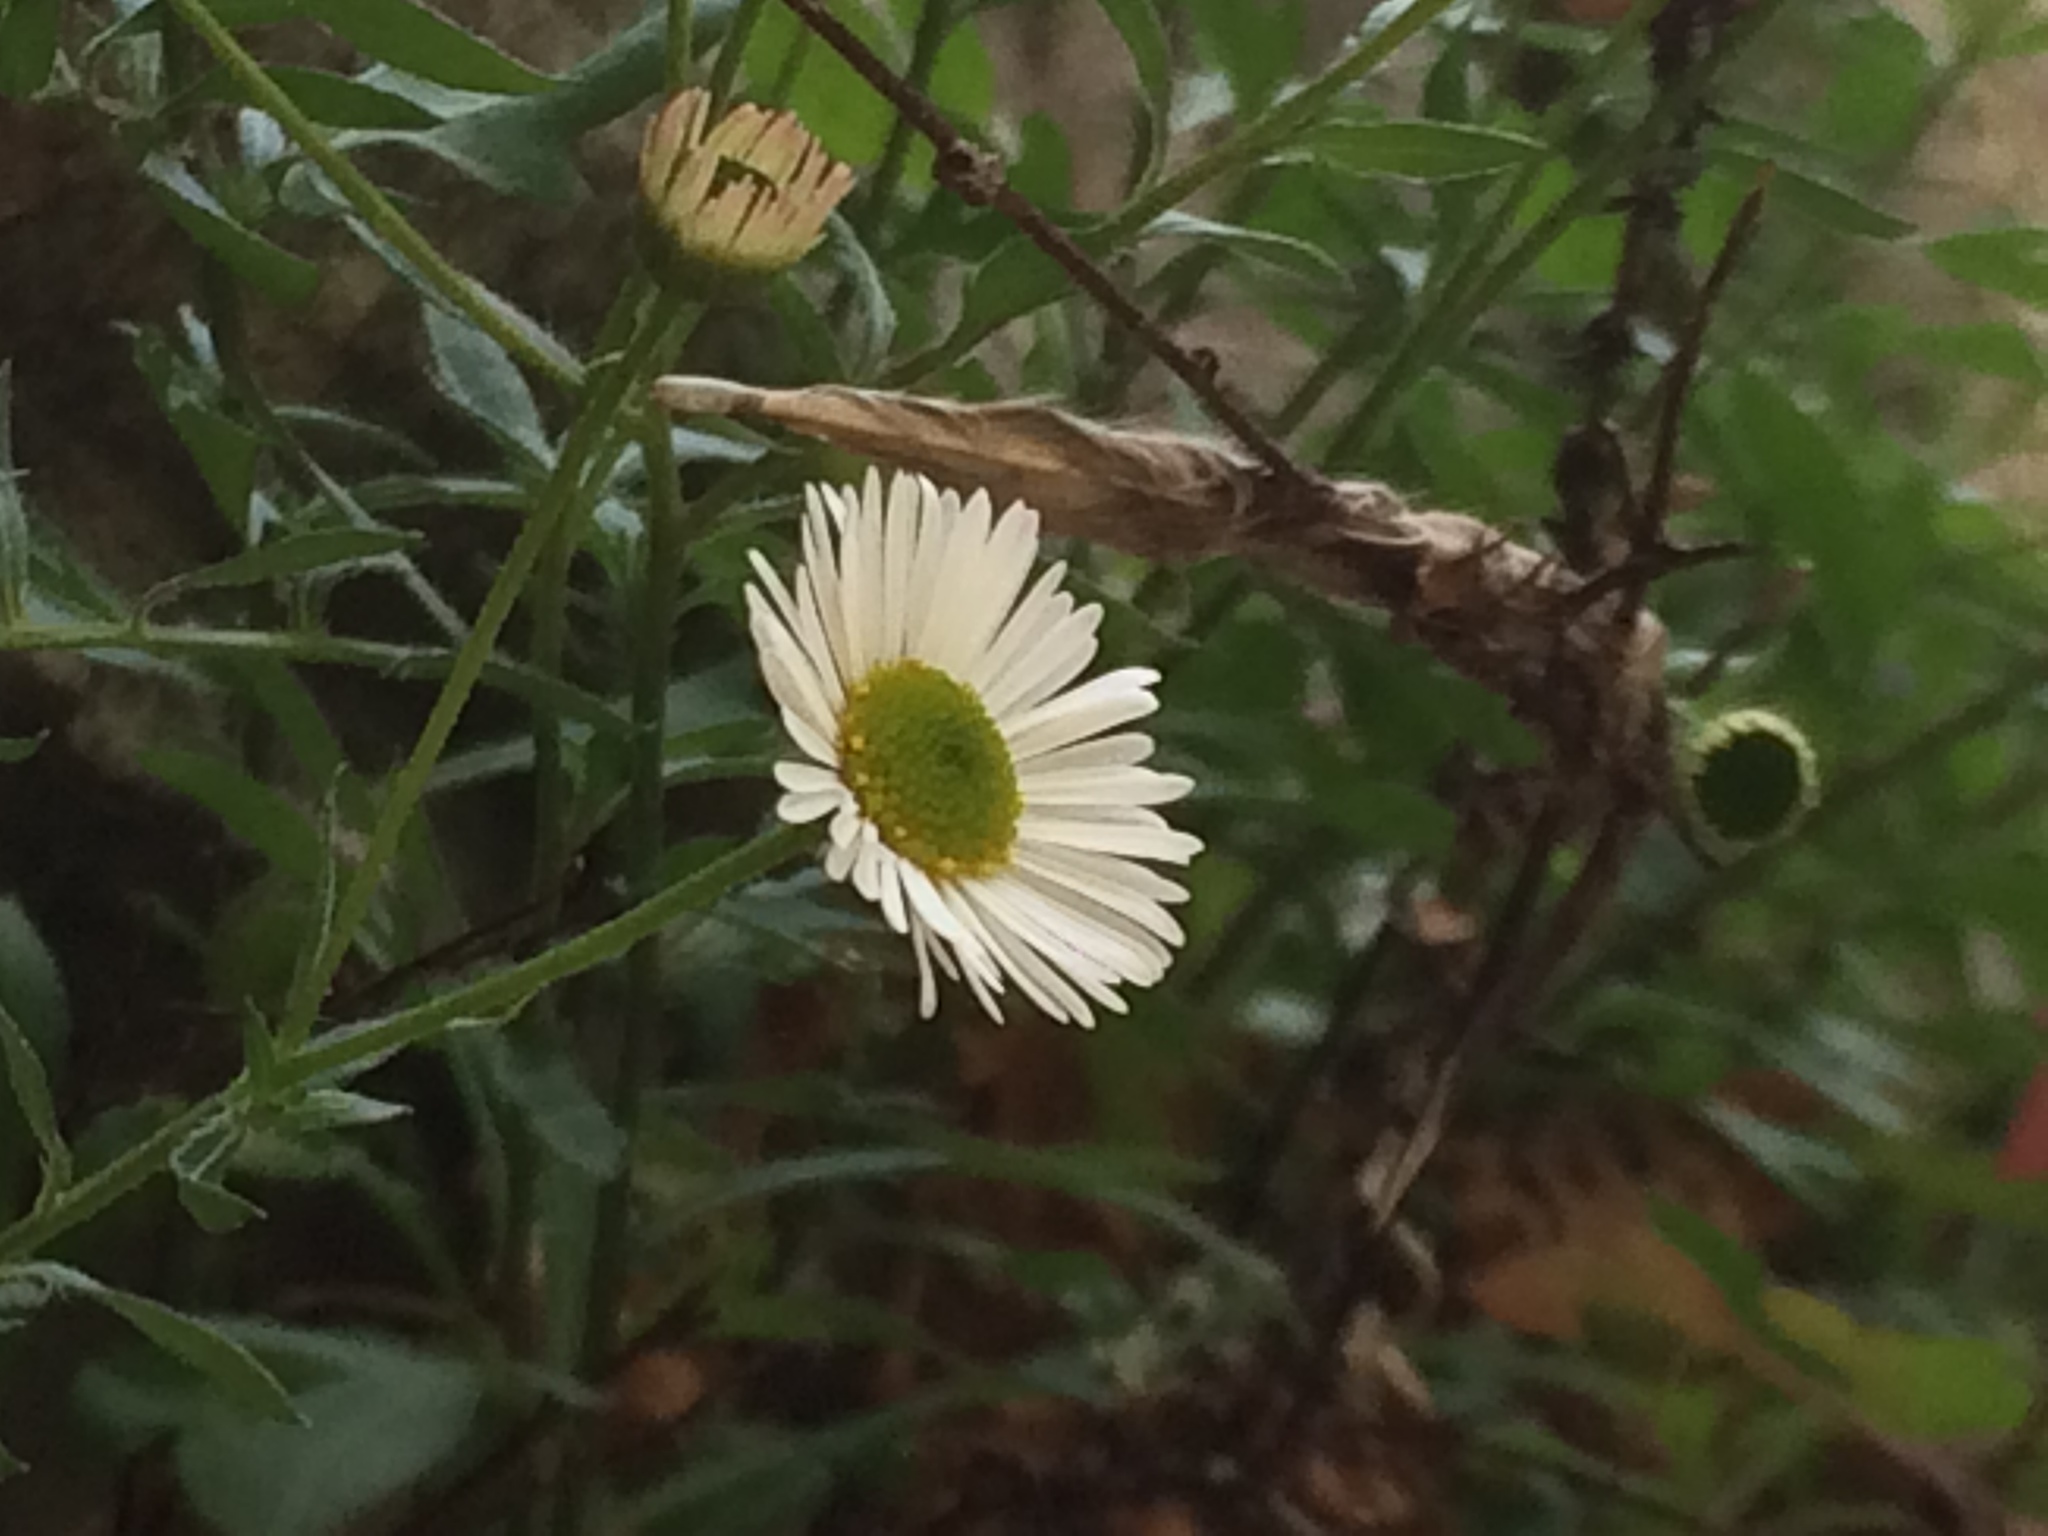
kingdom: Plantae
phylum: Tracheophyta
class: Magnoliopsida
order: Asterales
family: Asteraceae
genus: Erigeron
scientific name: Erigeron karvinskianus
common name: Mexican fleabane
